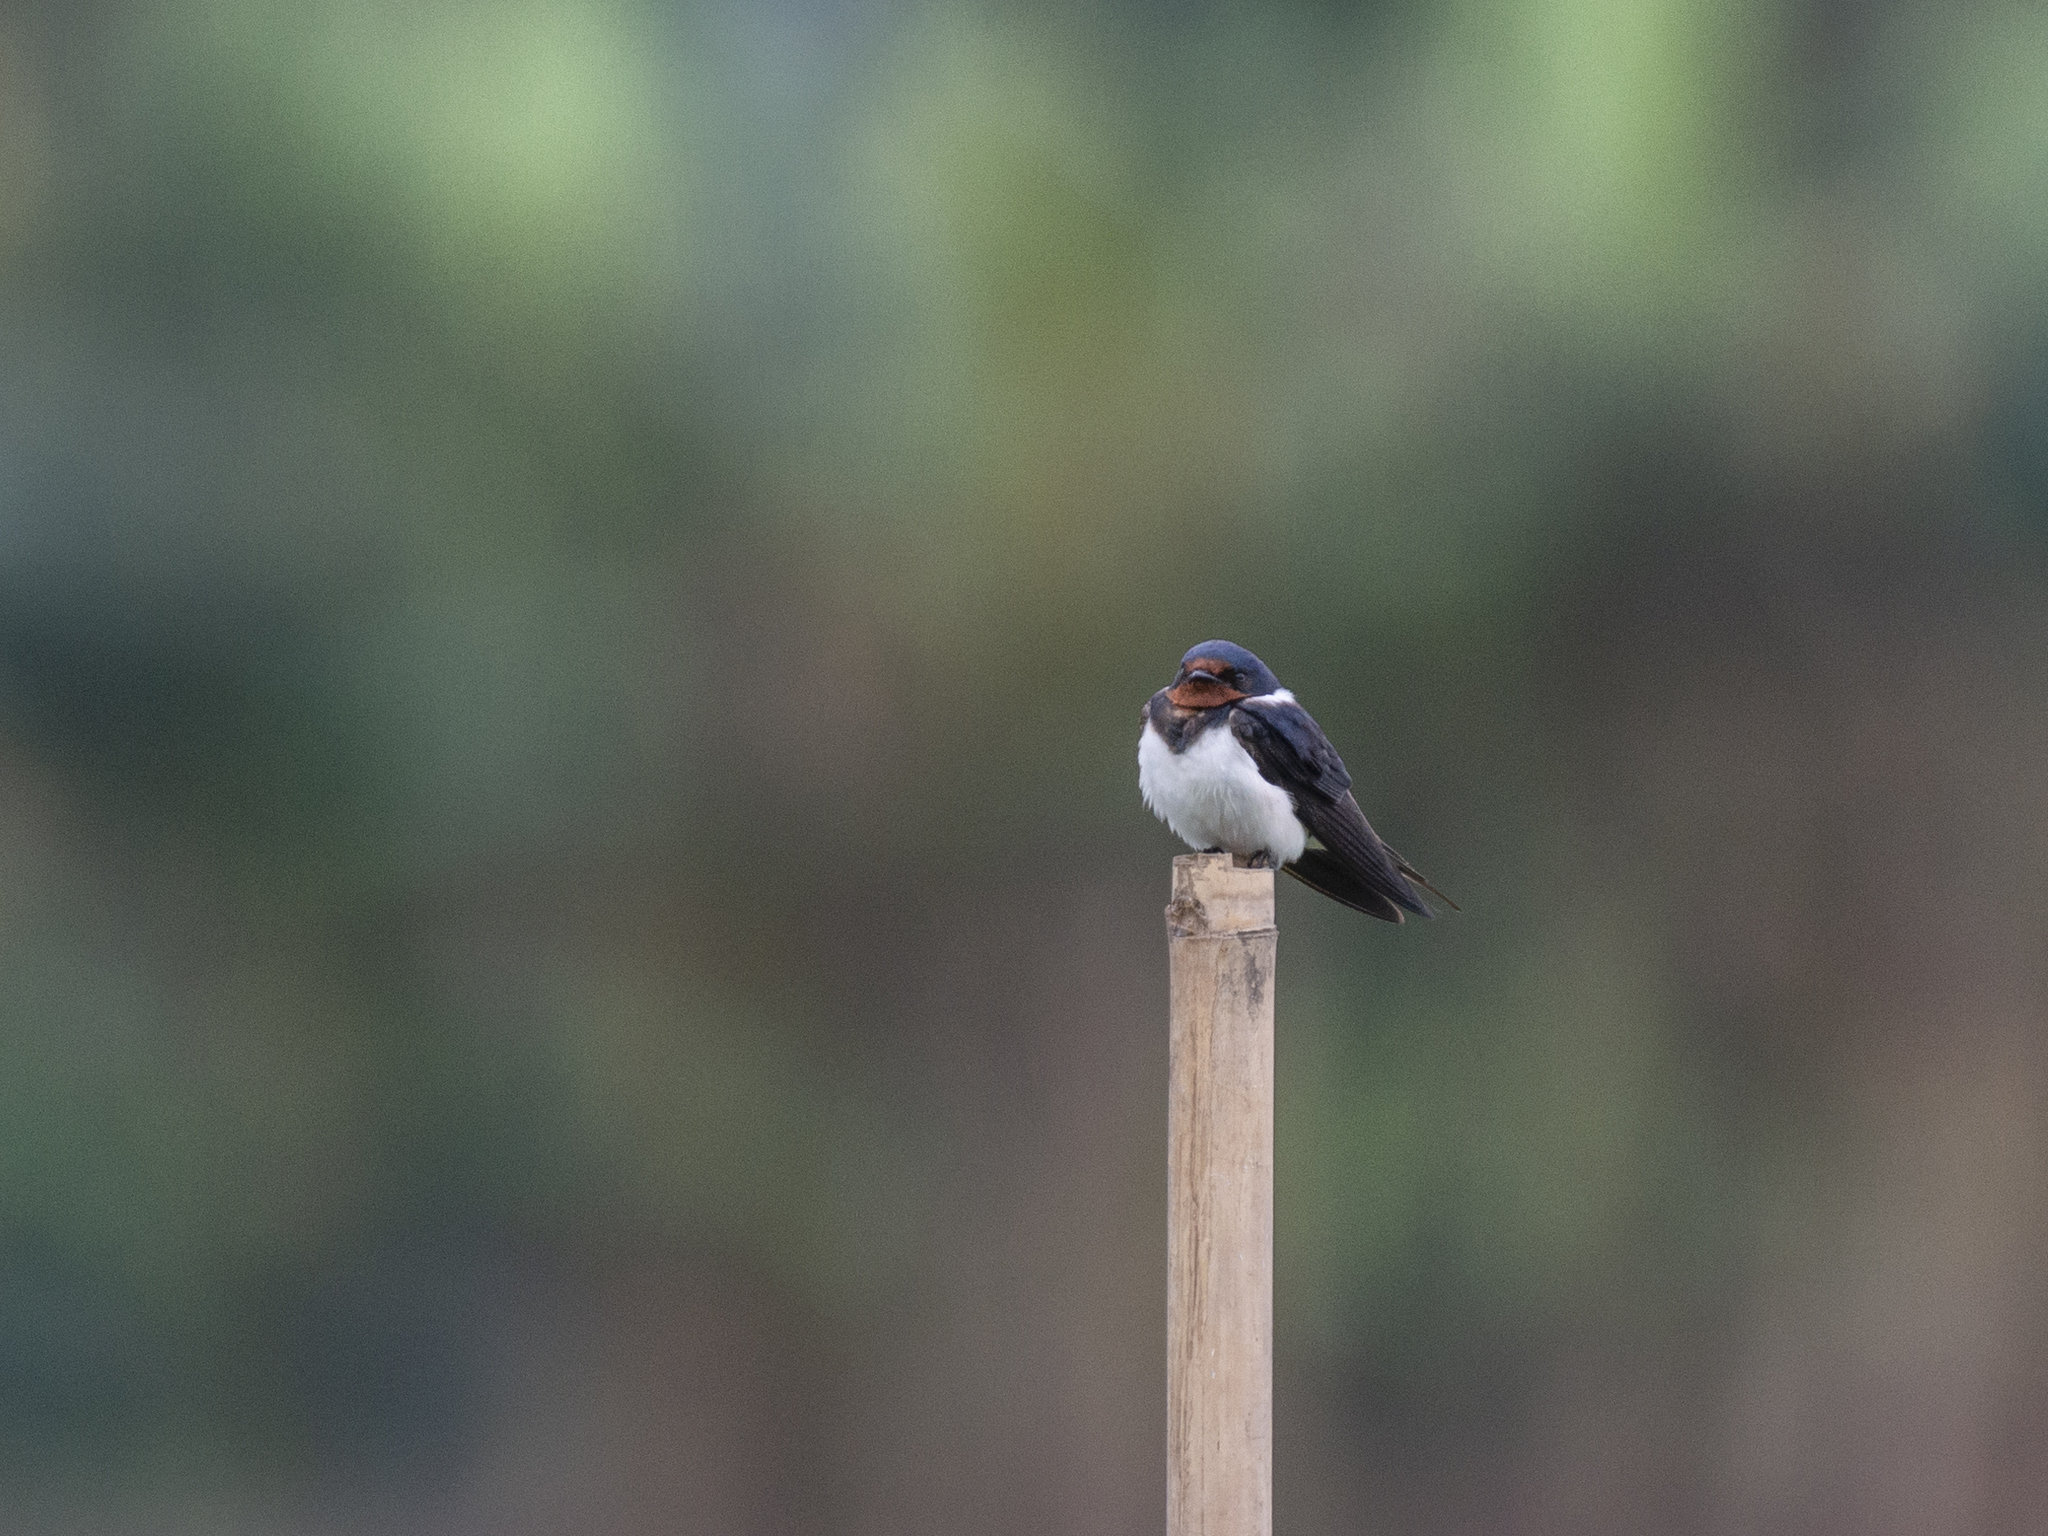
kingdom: Animalia
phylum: Chordata
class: Aves
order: Passeriformes
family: Hirundinidae
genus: Hirundo
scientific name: Hirundo rustica
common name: Barn swallow
